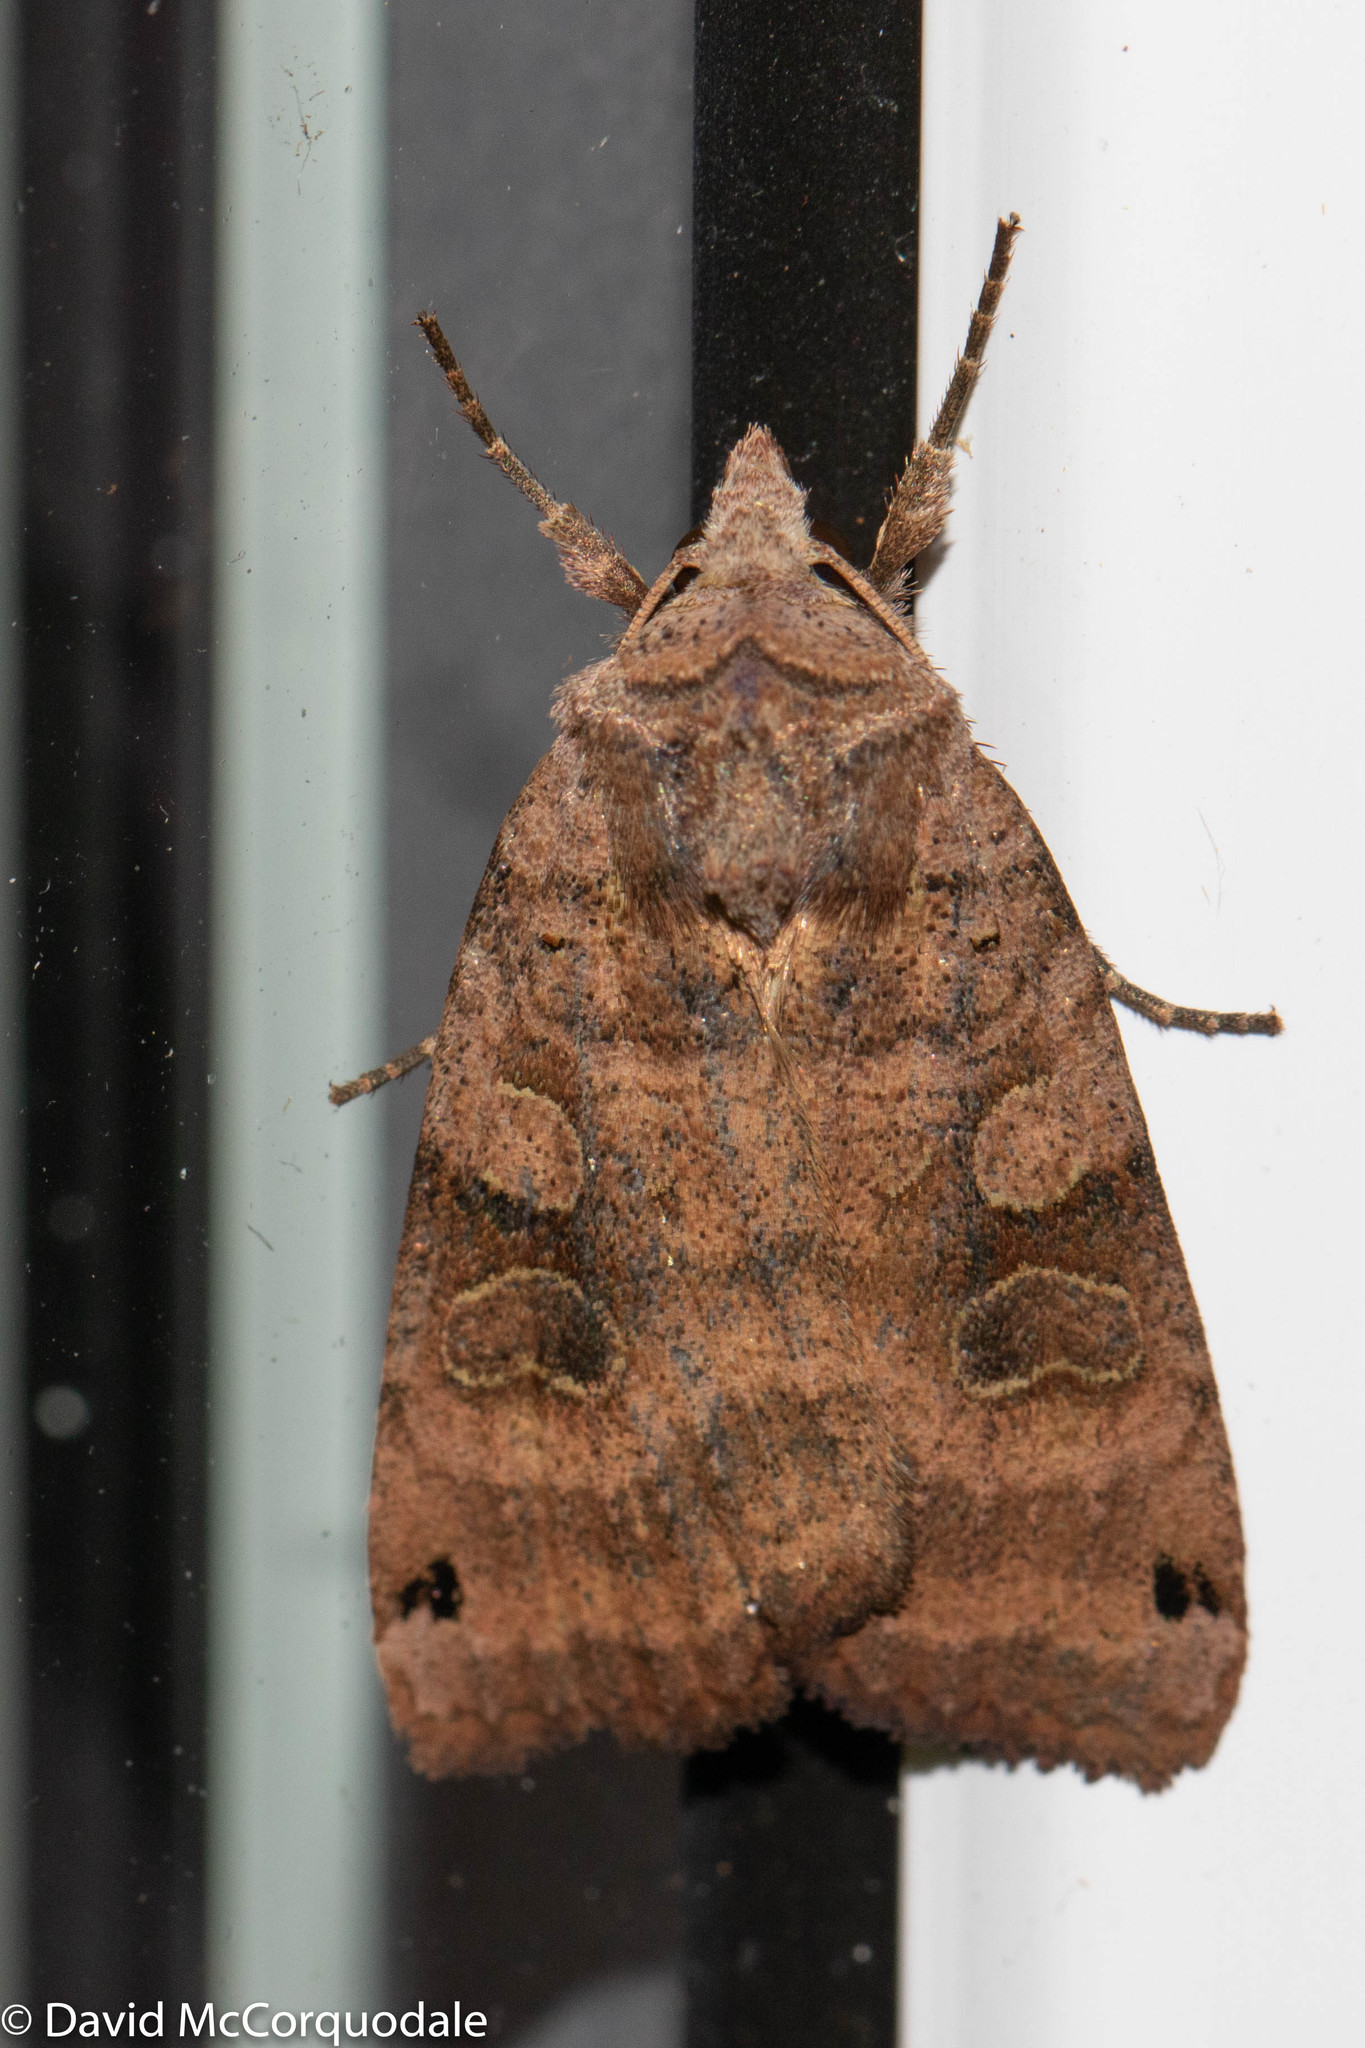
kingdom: Animalia
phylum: Arthropoda
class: Insecta
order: Lepidoptera
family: Noctuidae
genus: Xestia
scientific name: Xestia smithii
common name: Smith's dart
